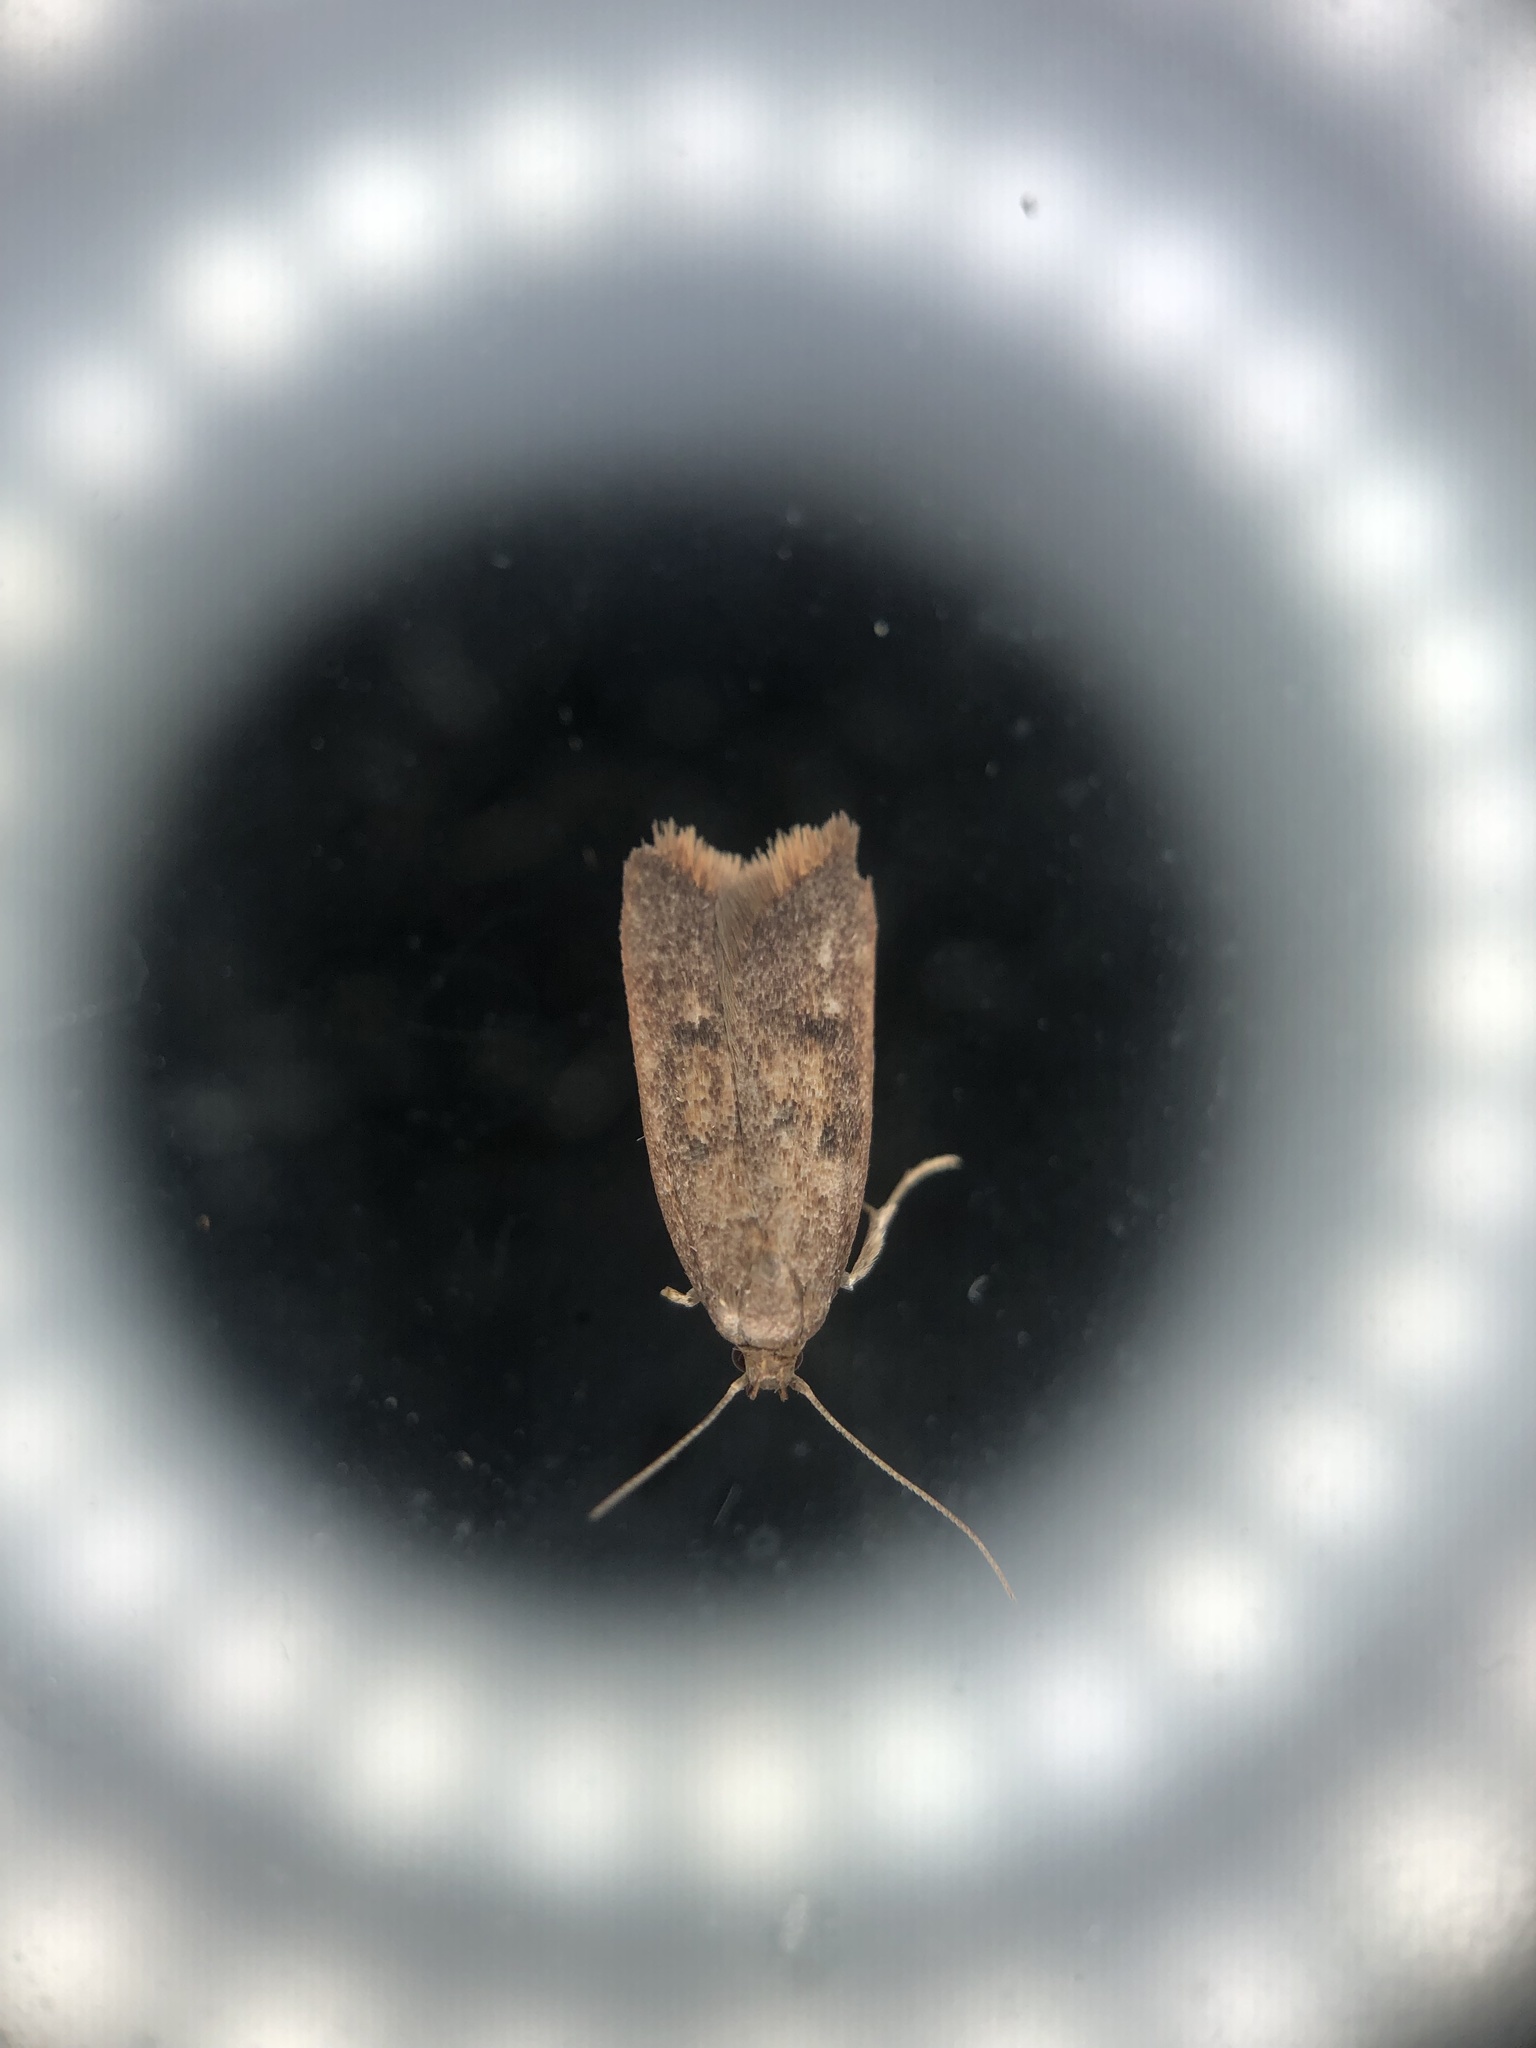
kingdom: Animalia
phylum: Arthropoda
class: Insecta
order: Lepidoptera
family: Oecophoridae
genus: Tachystola
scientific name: Tachystola acroxantha
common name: Ruddy streak
